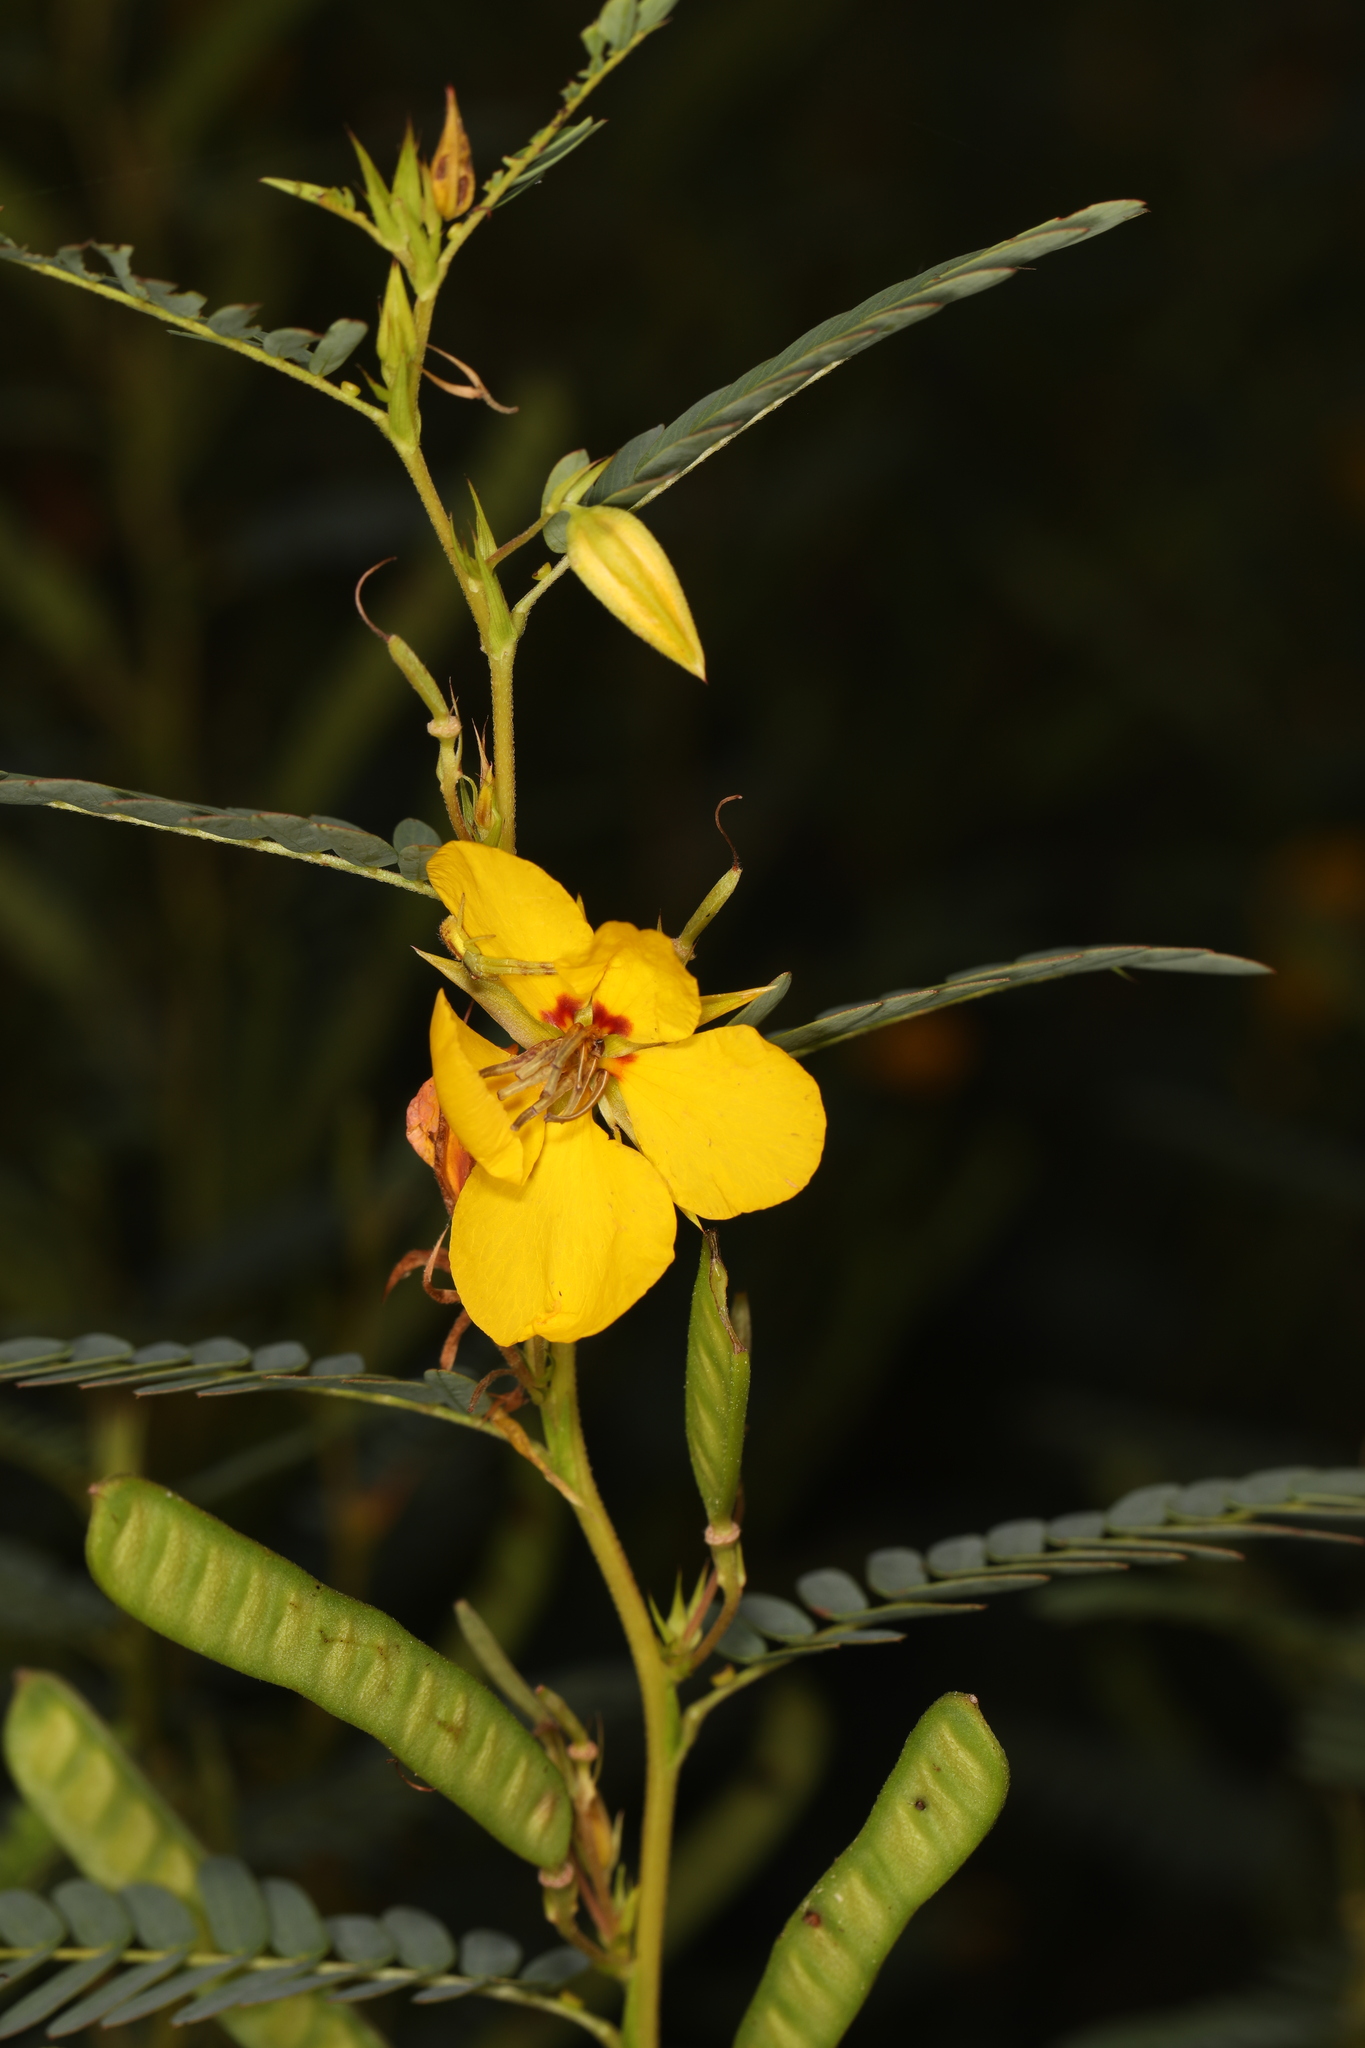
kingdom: Plantae
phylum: Tracheophyta
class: Magnoliopsida
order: Fabales
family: Fabaceae
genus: Chamaecrista
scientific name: Chamaecrista fasciculata
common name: Golden cassia
